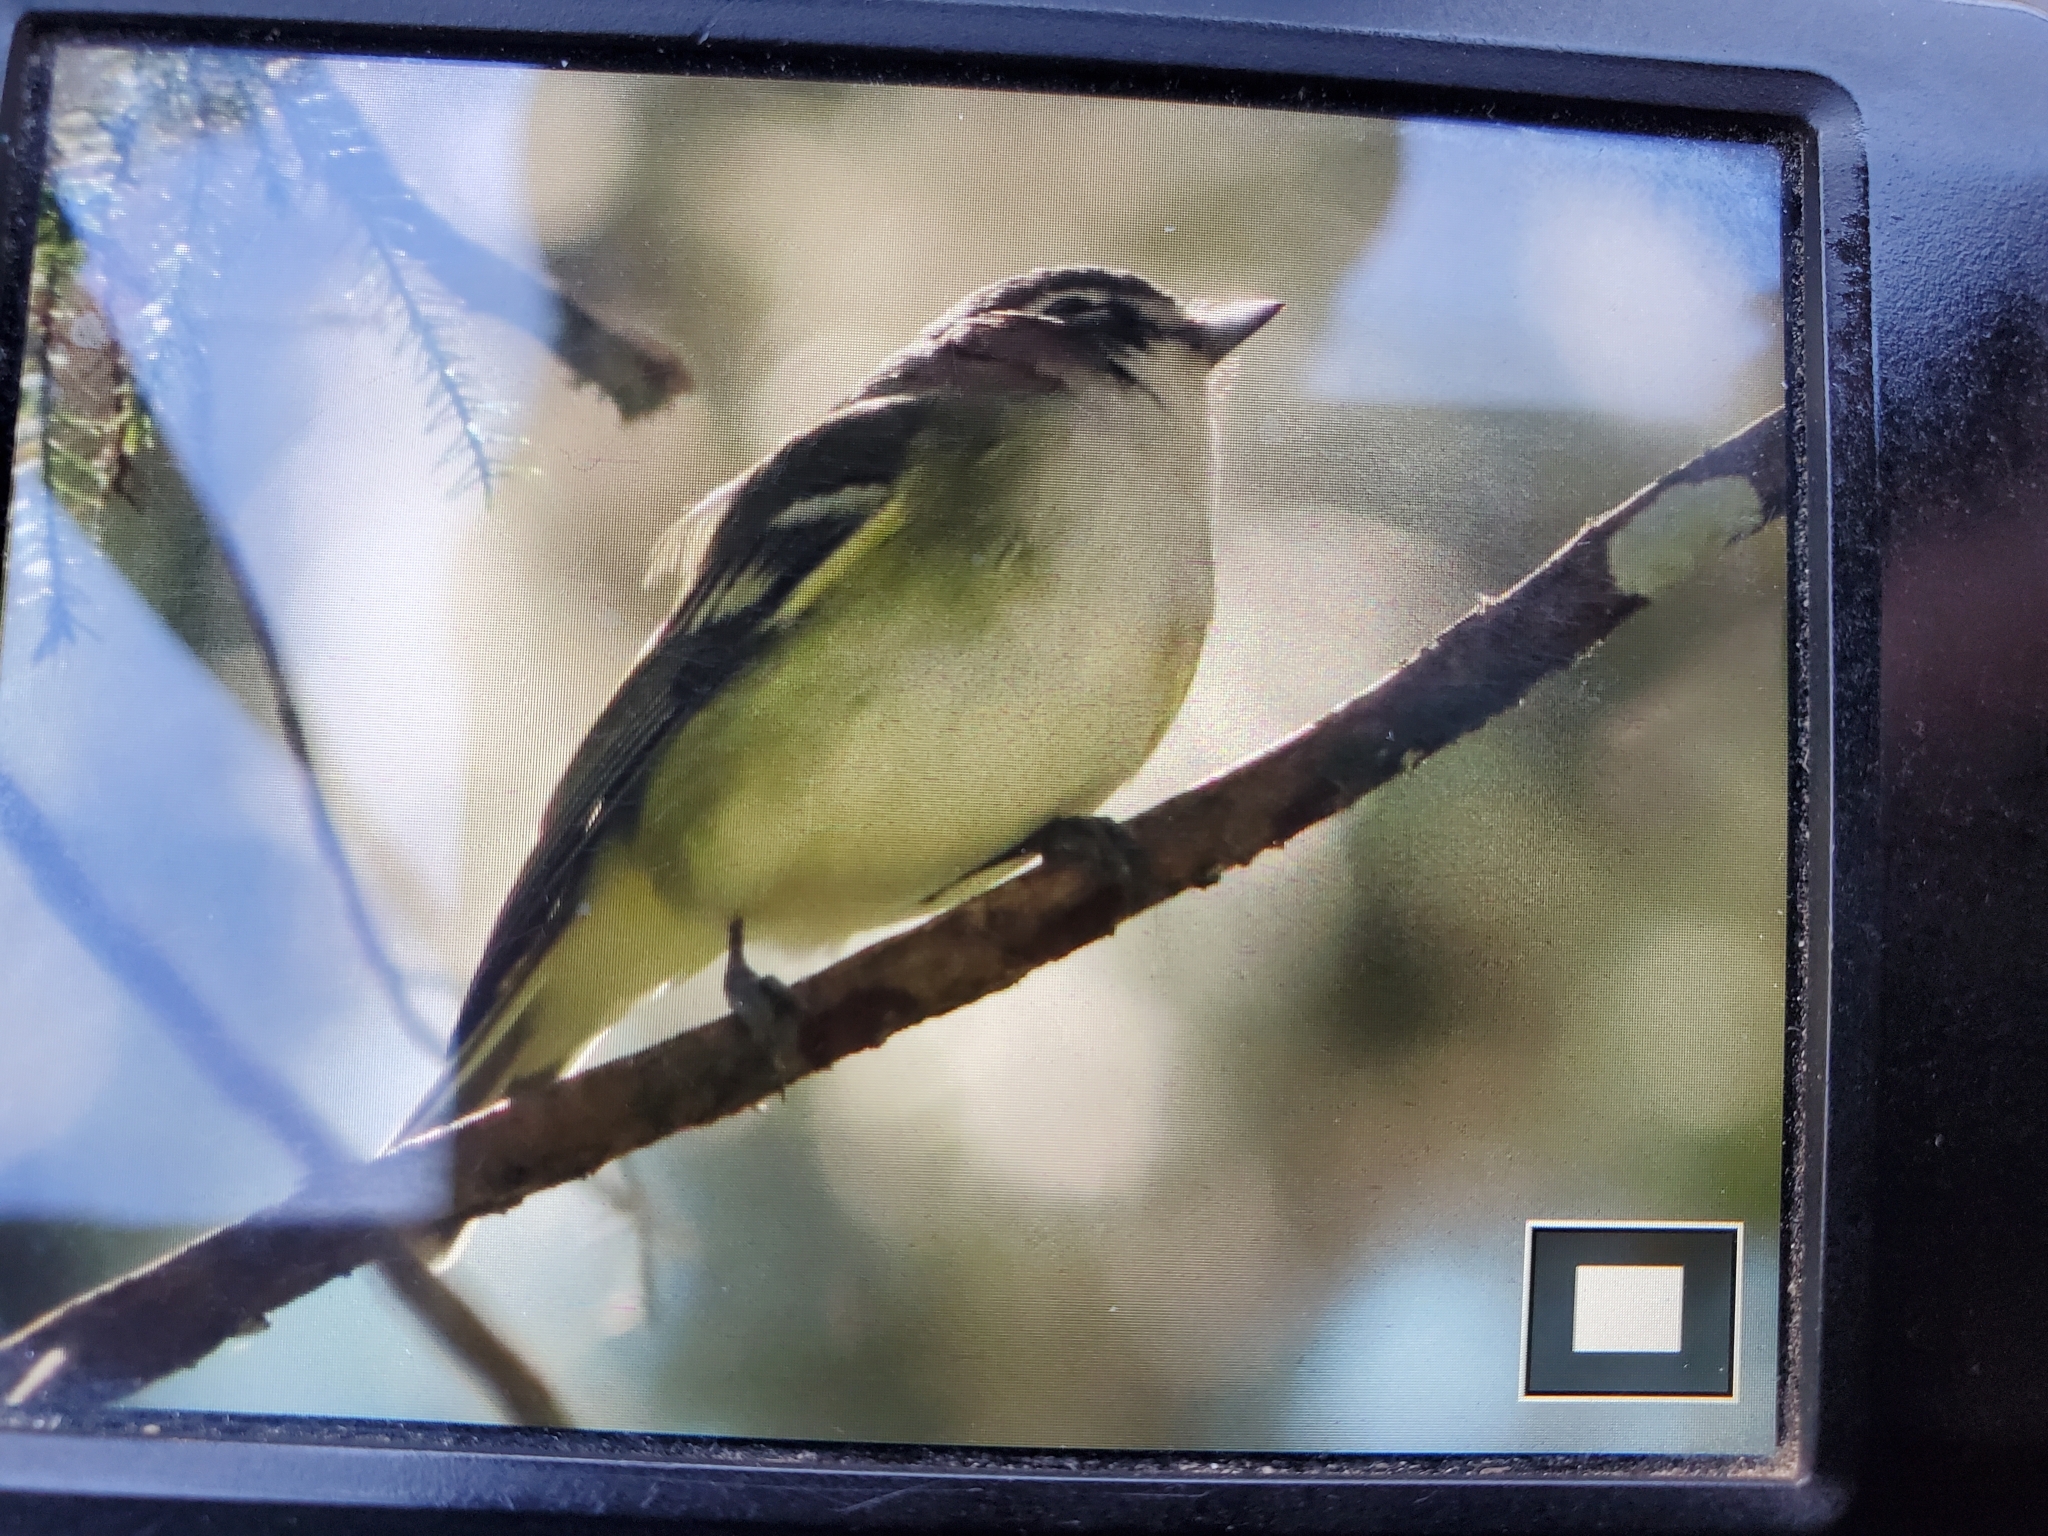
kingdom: Animalia
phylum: Chordata
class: Aves
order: Passeriformes
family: Vireonidae
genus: Vireo
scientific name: Vireo solitarius
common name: Blue-headed vireo
